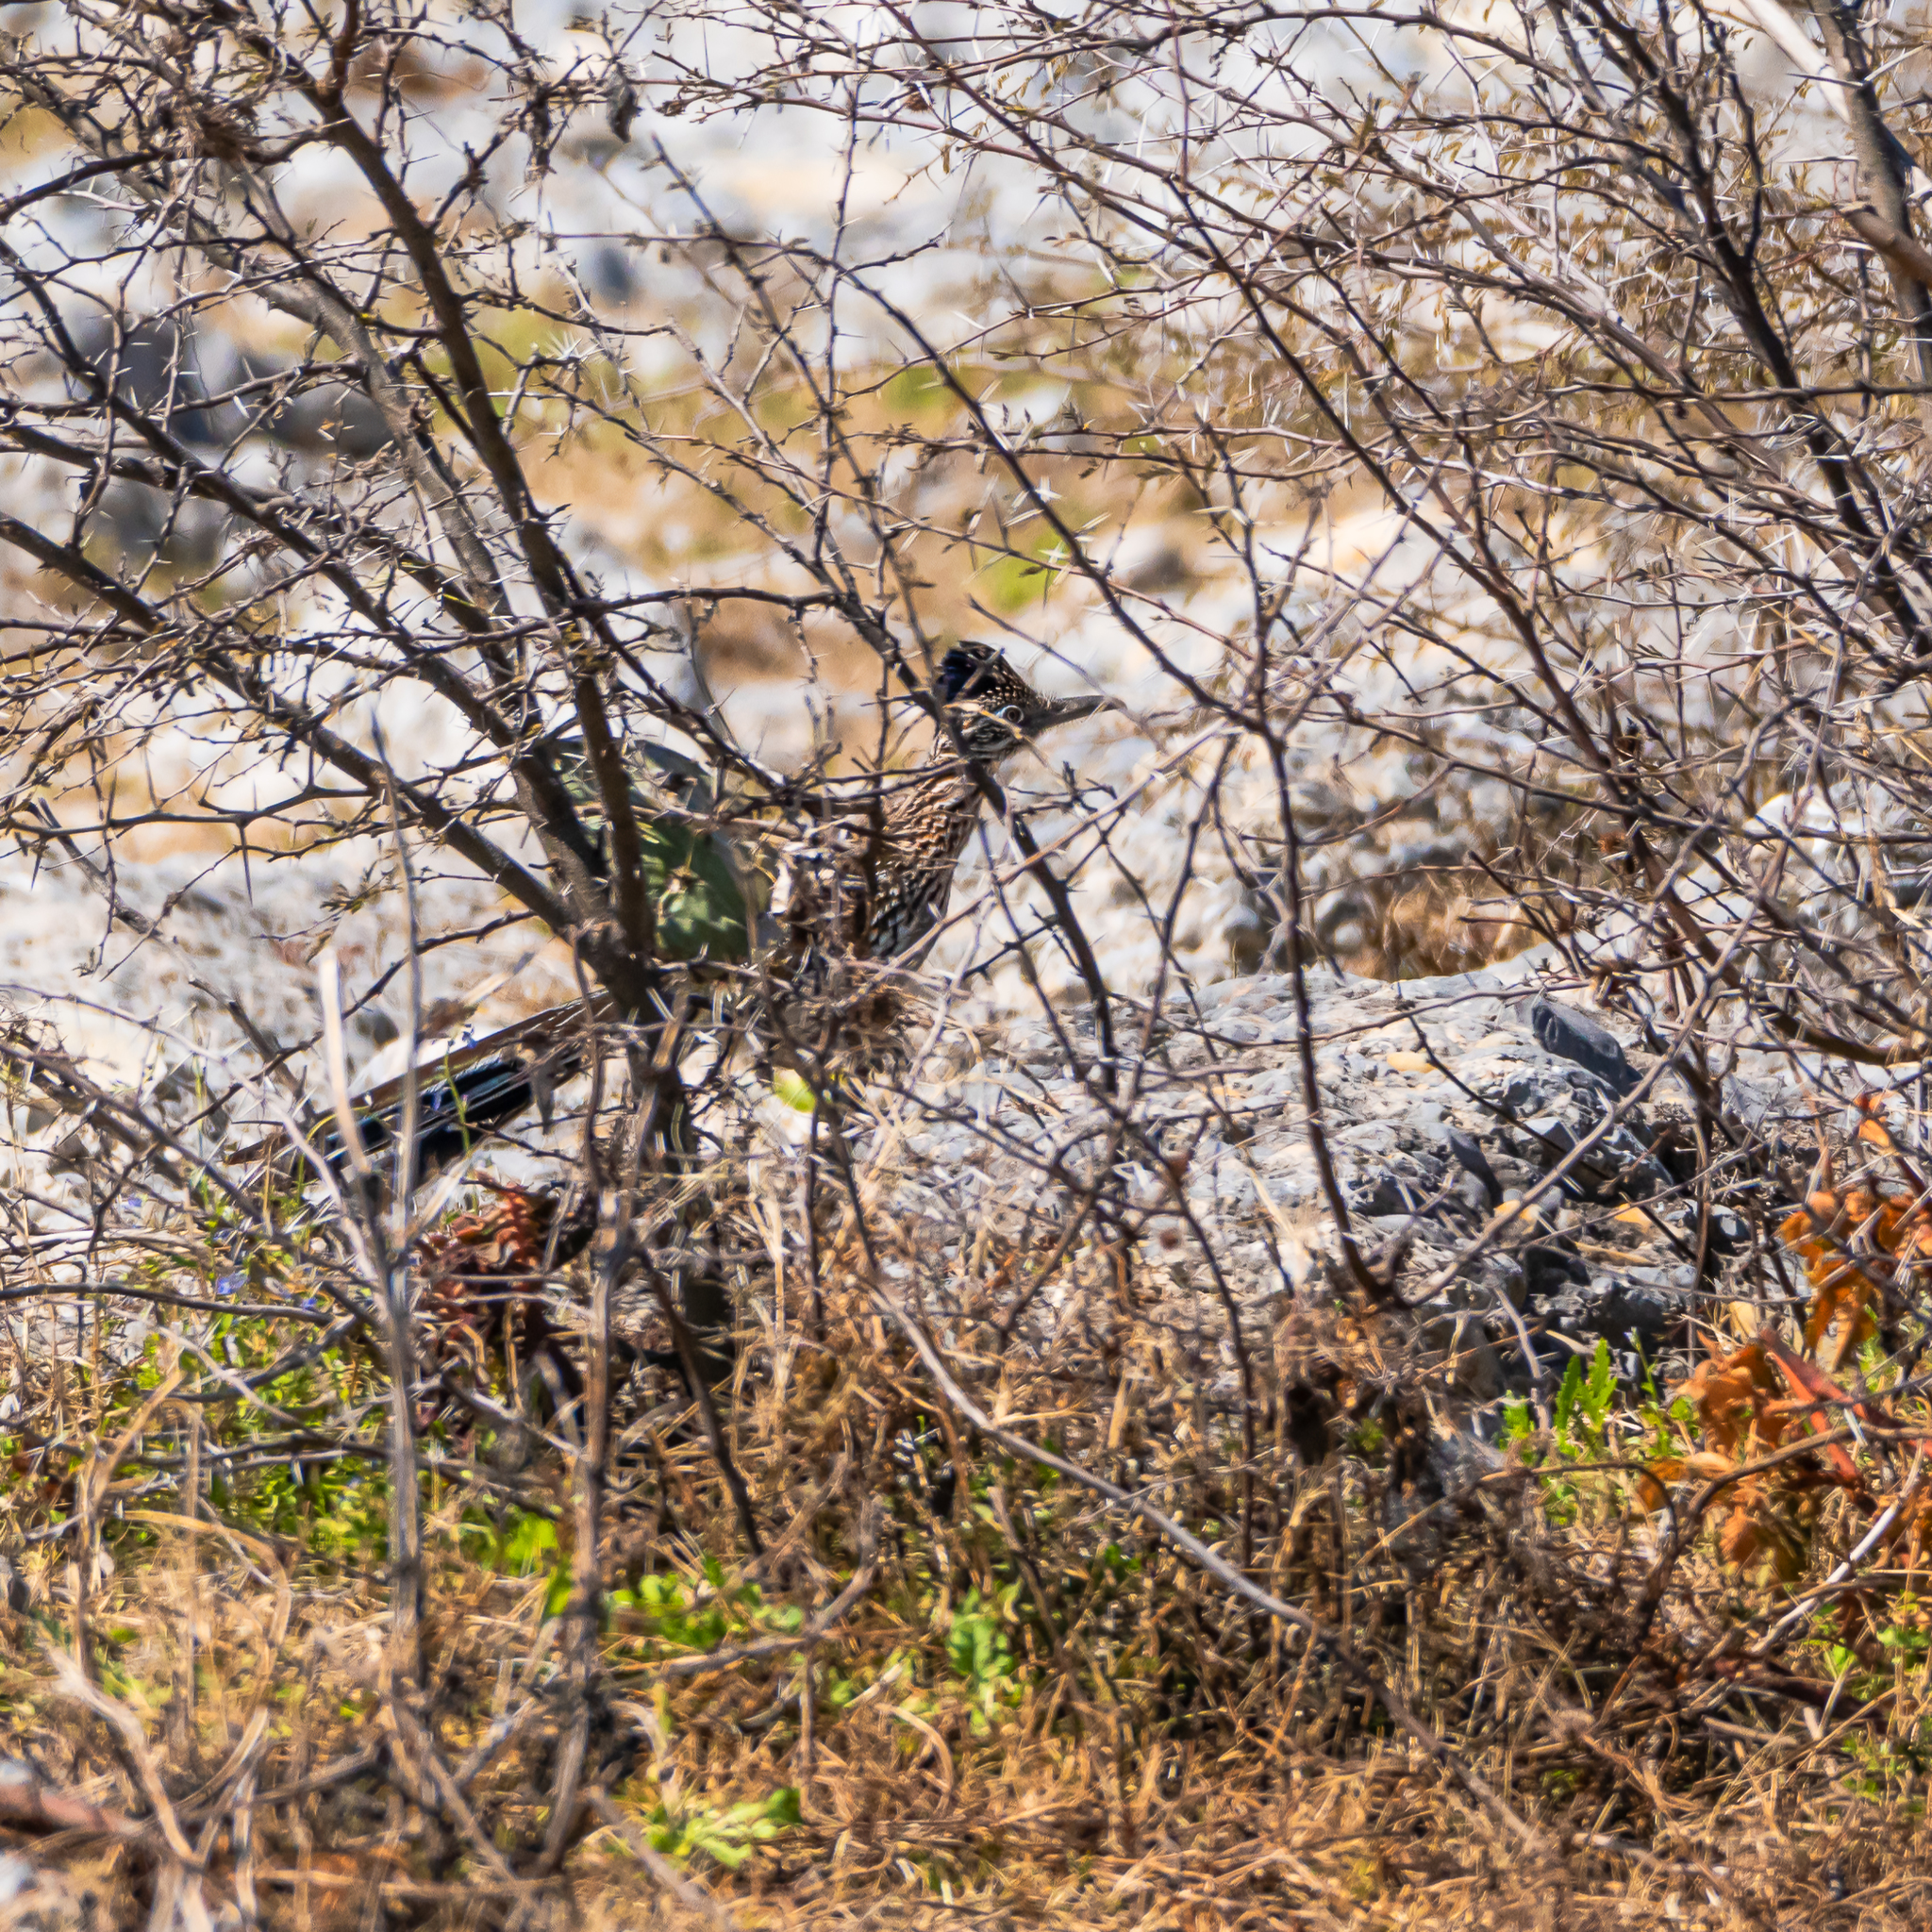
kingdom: Animalia
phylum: Chordata
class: Aves
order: Cuculiformes
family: Cuculidae
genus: Geococcyx
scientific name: Geococcyx californianus
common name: Greater roadrunner
